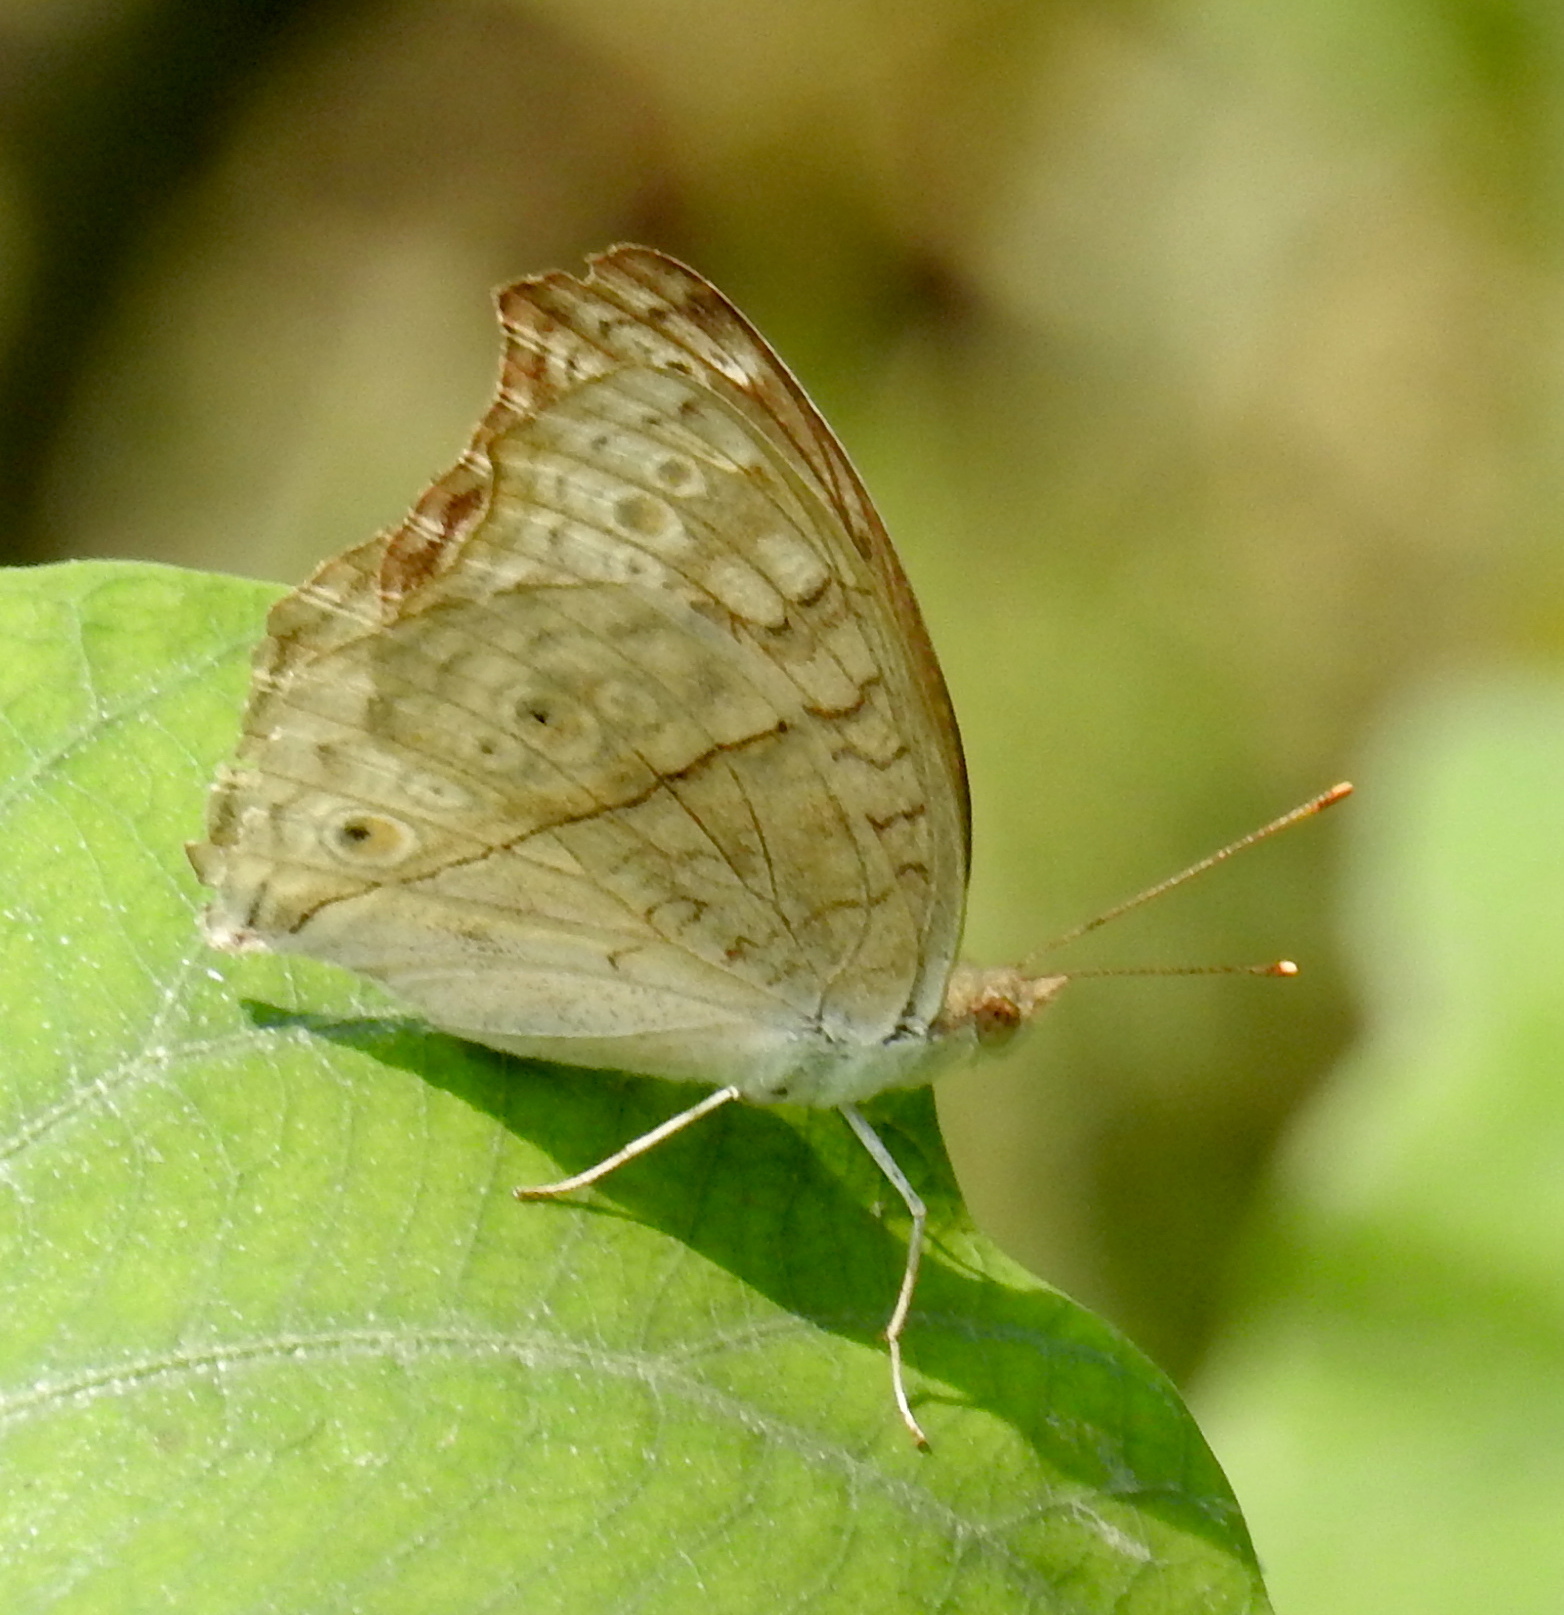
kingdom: Animalia
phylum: Arthropoda
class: Insecta
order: Lepidoptera
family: Nymphalidae
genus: Junonia
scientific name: Junonia atlites
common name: Grey pansy
